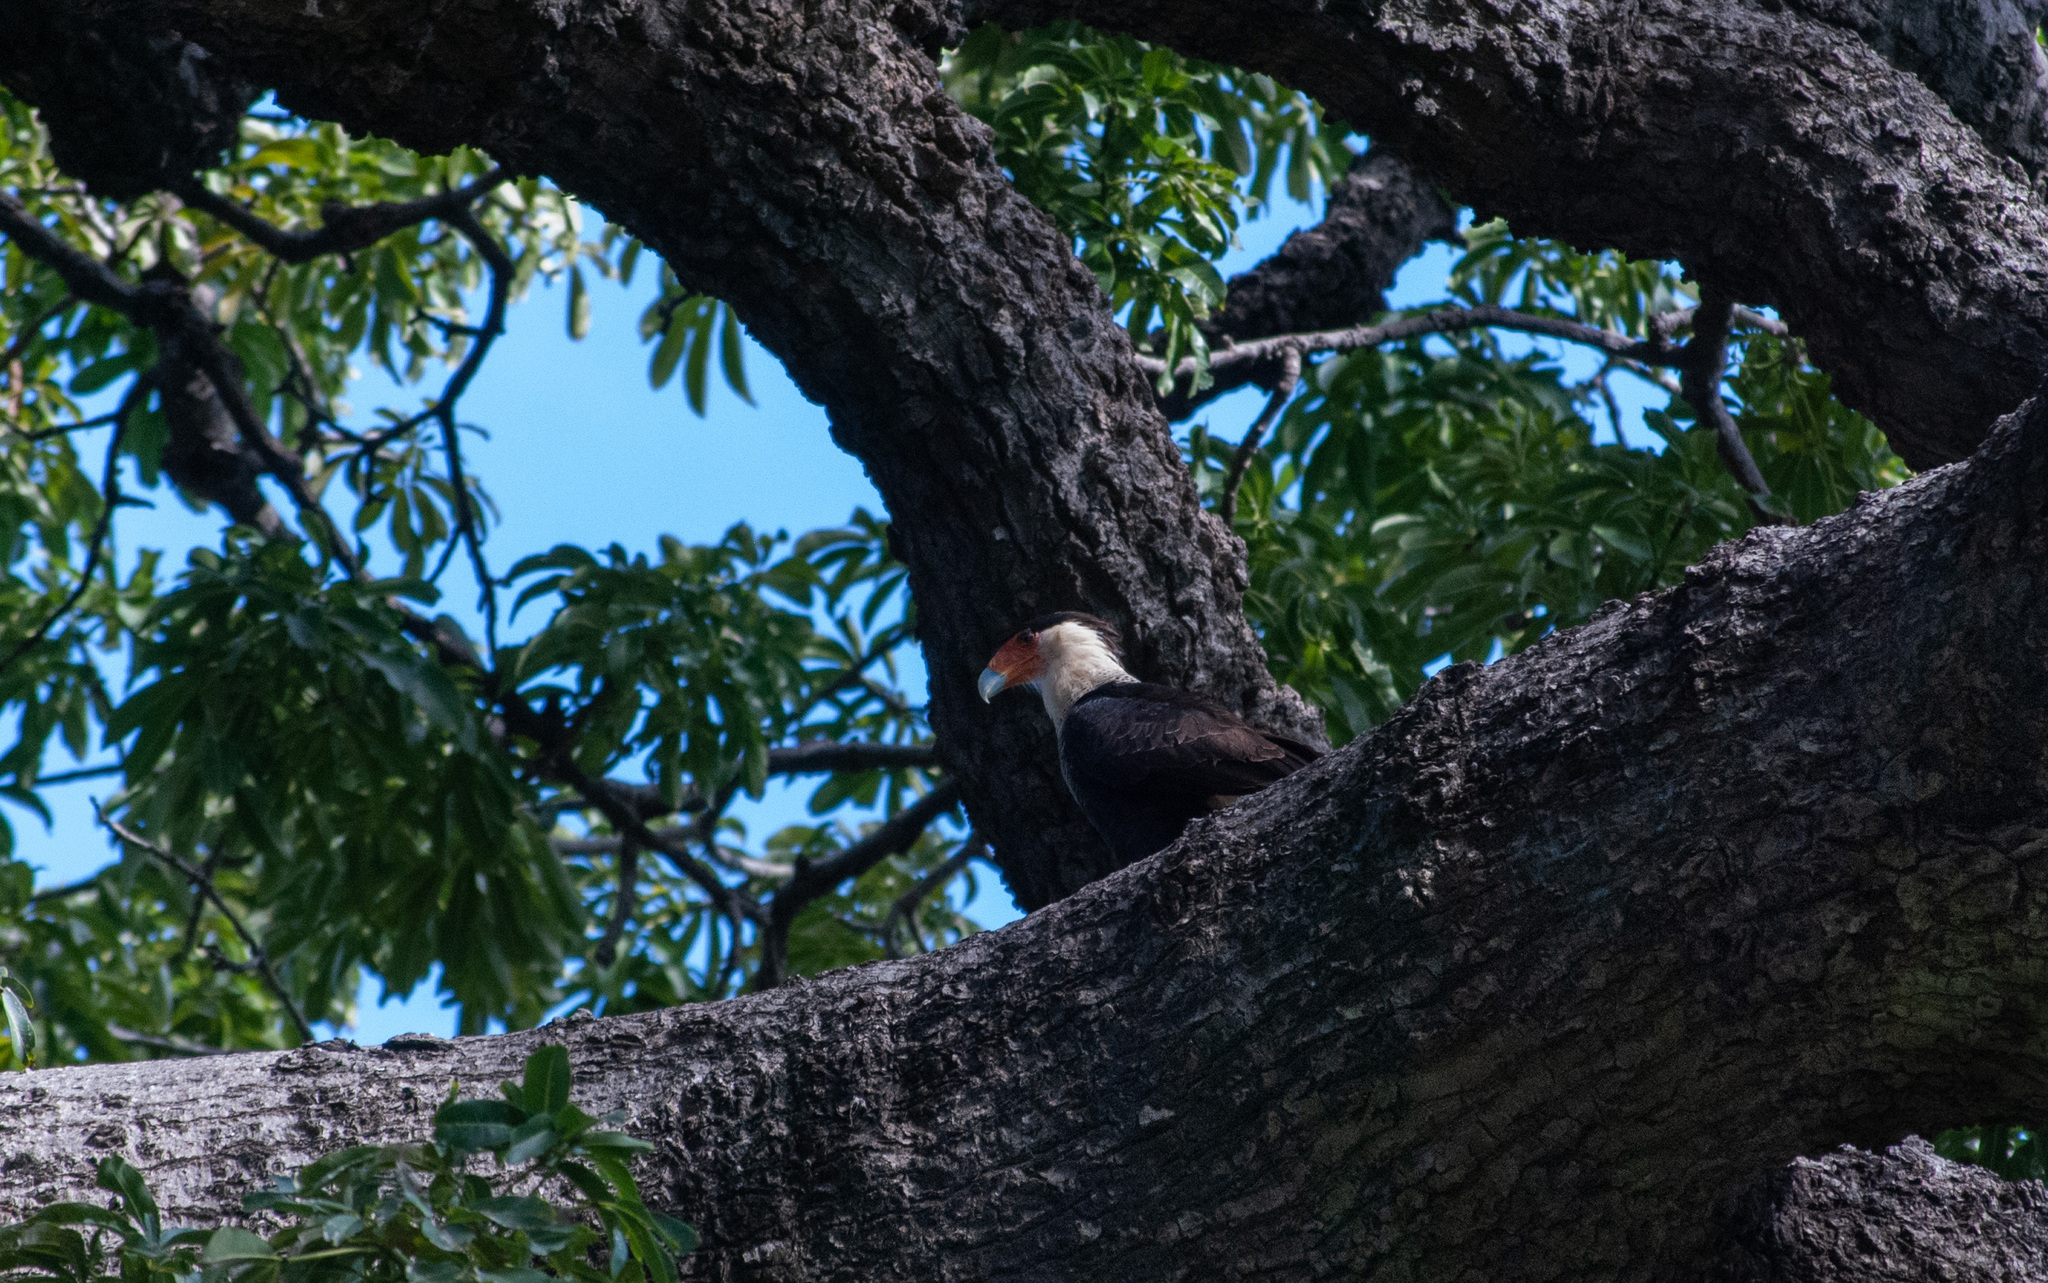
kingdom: Animalia
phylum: Chordata
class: Aves
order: Falconiformes
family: Falconidae
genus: Caracara
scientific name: Caracara plancus
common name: Southern caracara
